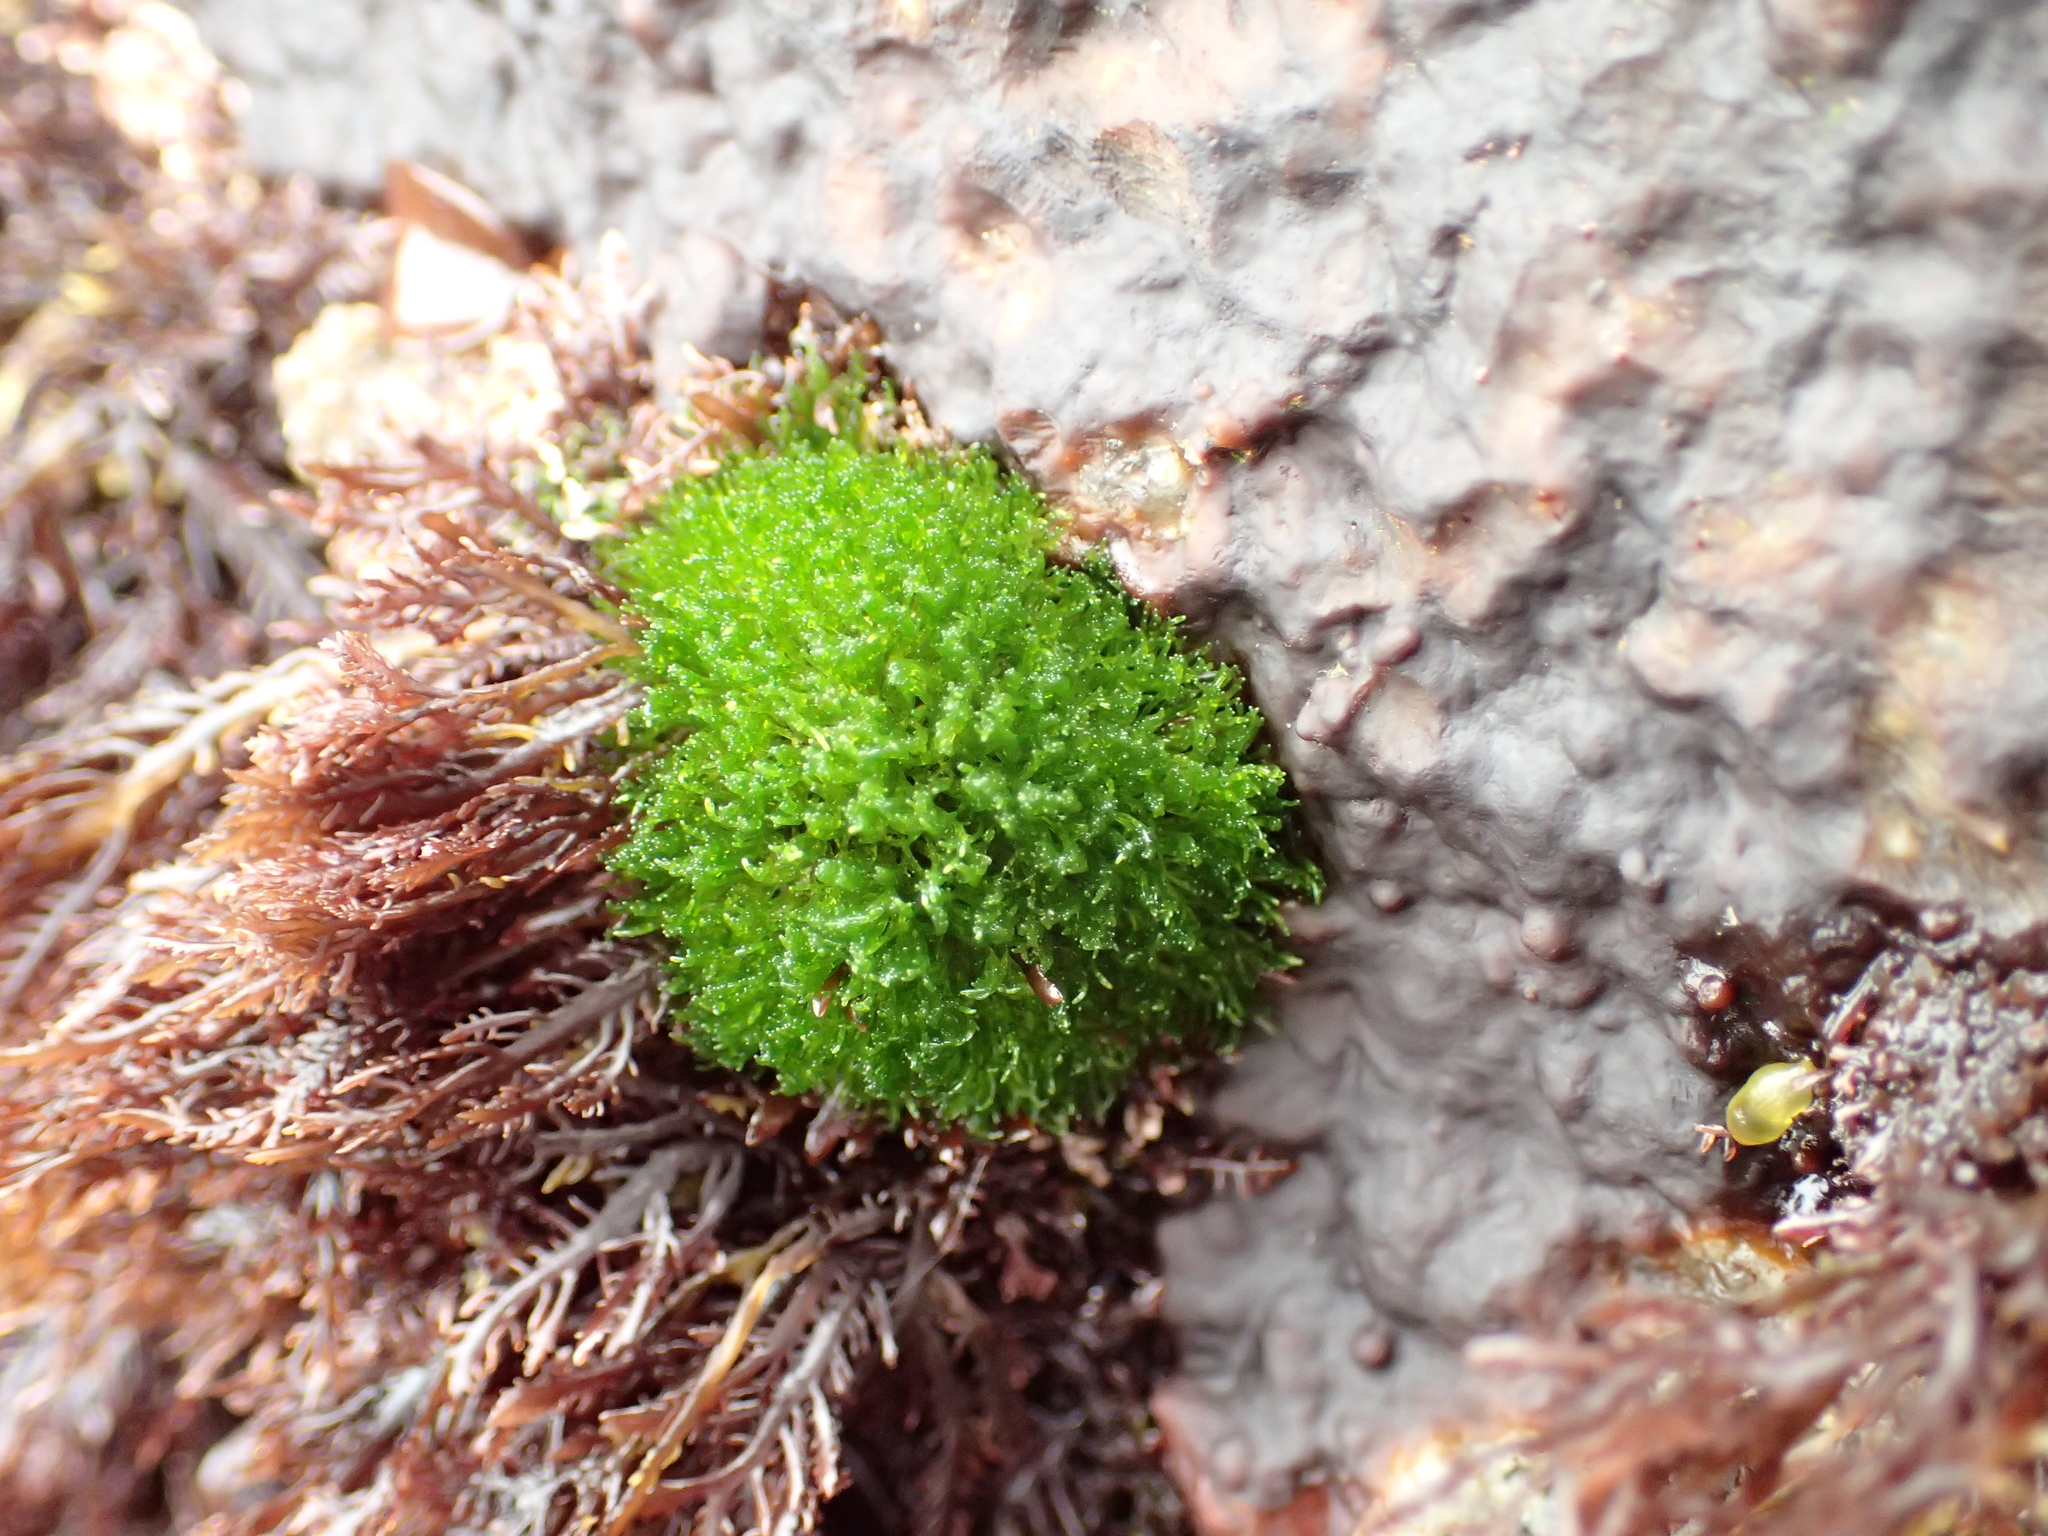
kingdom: Plantae
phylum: Chlorophyta
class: Ulvophyceae
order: Cladophorales
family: Cladophoraceae
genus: Cladophora
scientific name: Cladophora columbiana
